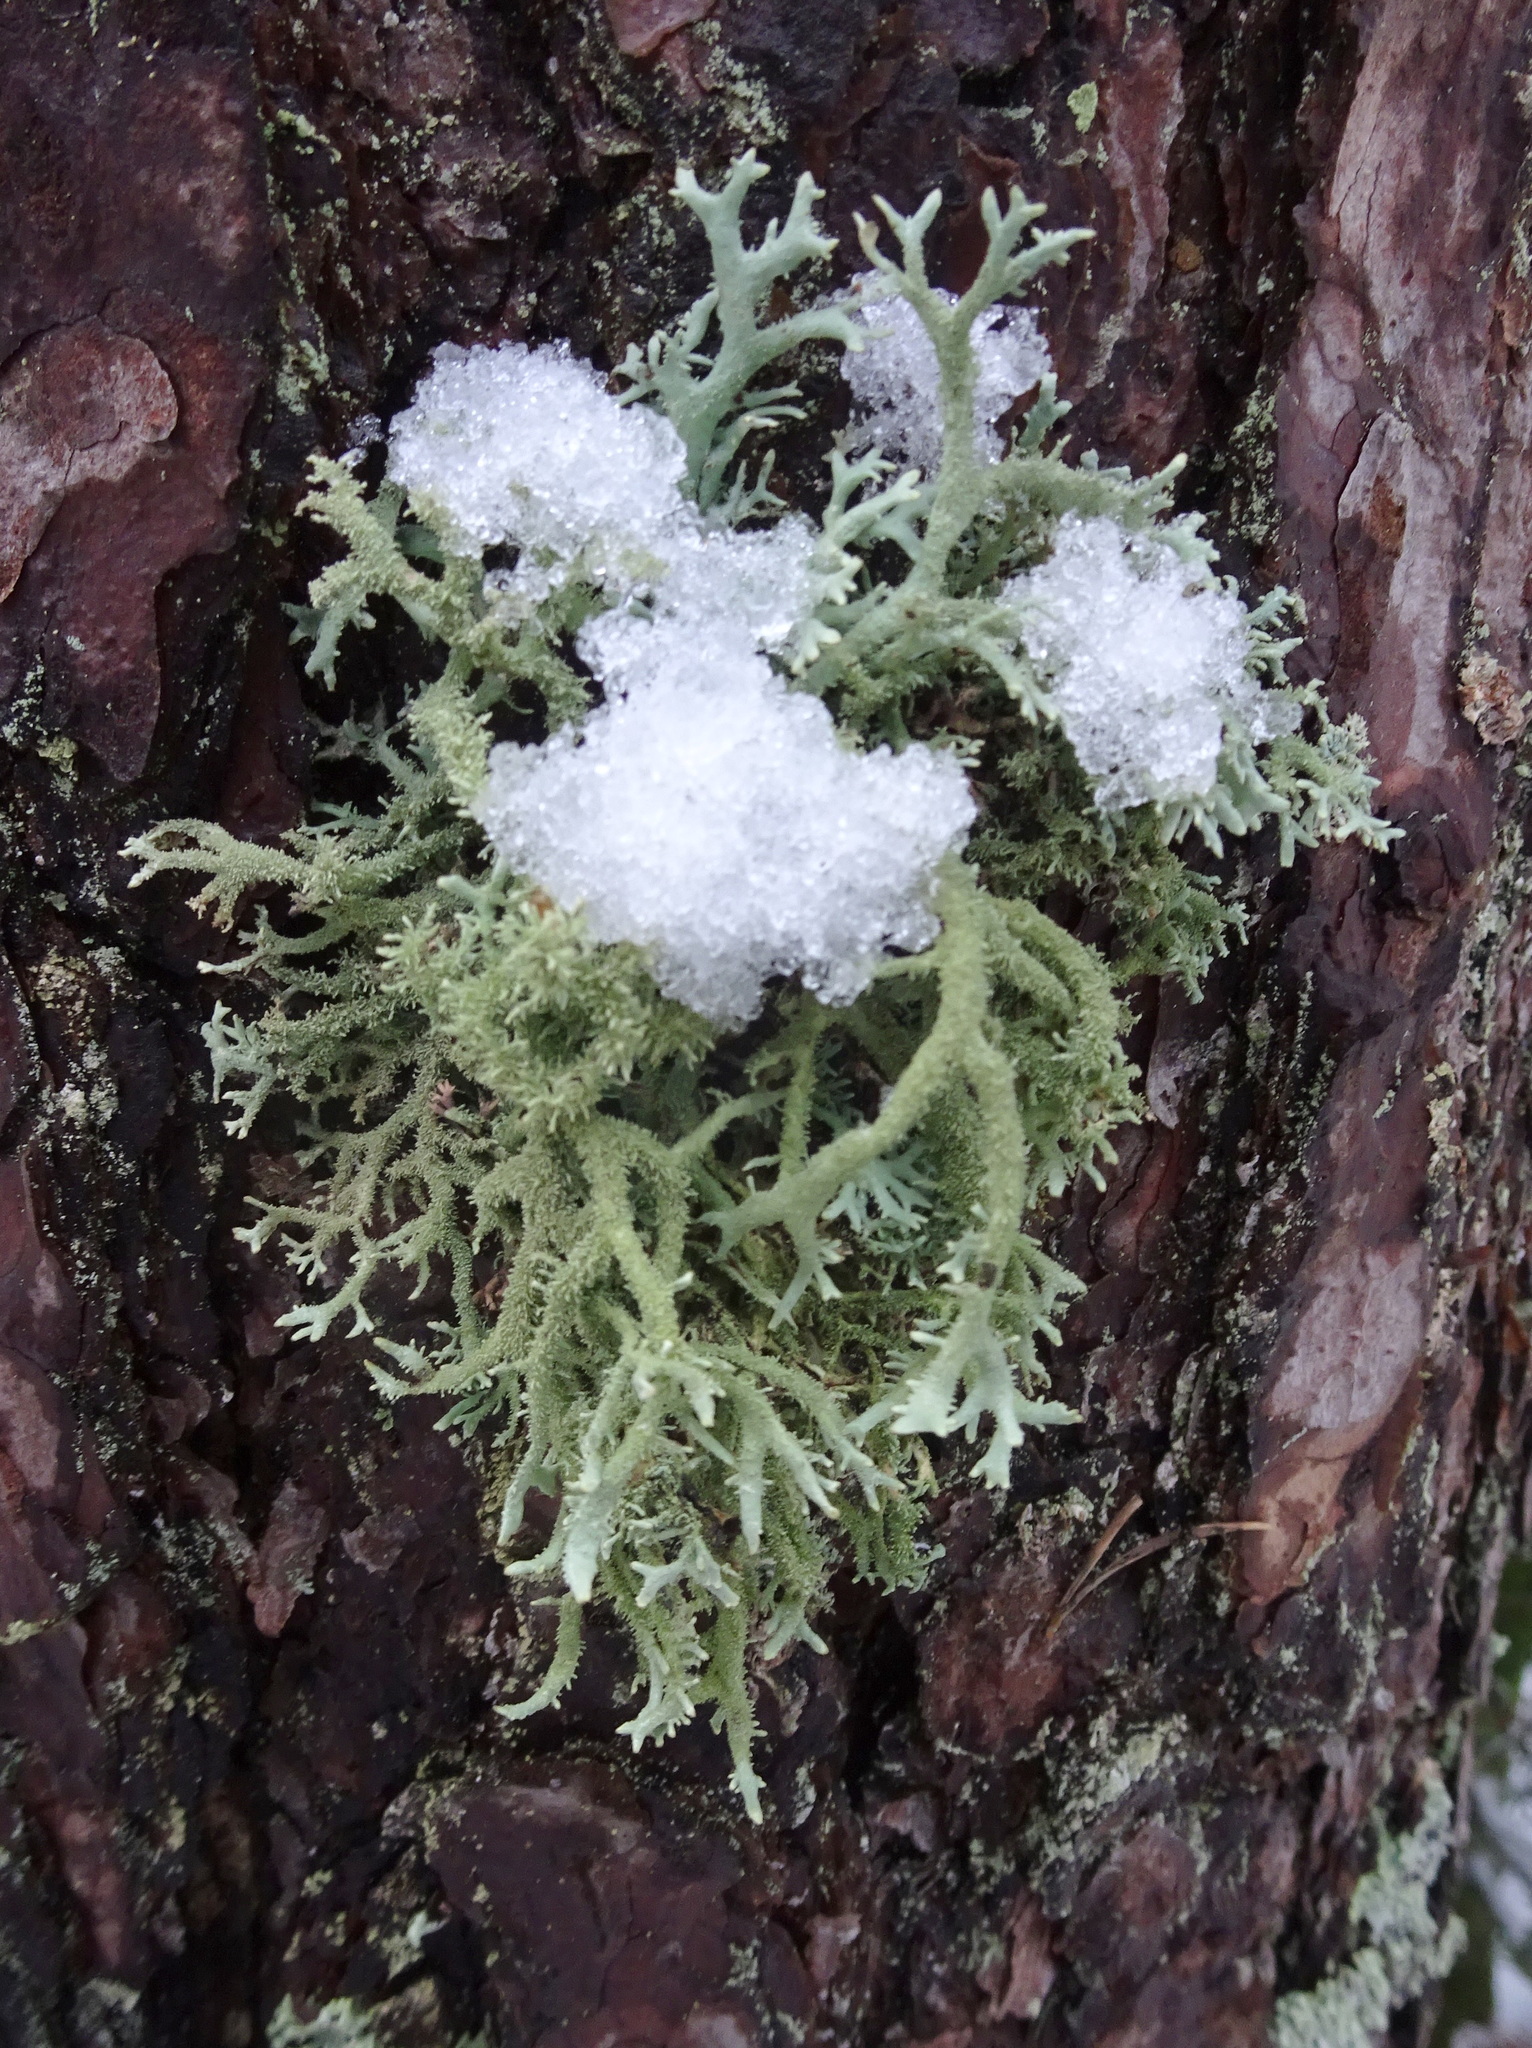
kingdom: Fungi
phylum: Ascomycota
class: Lecanoromycetes
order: Lecanorales
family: Parmeliaceae
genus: Pseudevernia
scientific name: Pseudevernia furfuracea
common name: Tree moss
